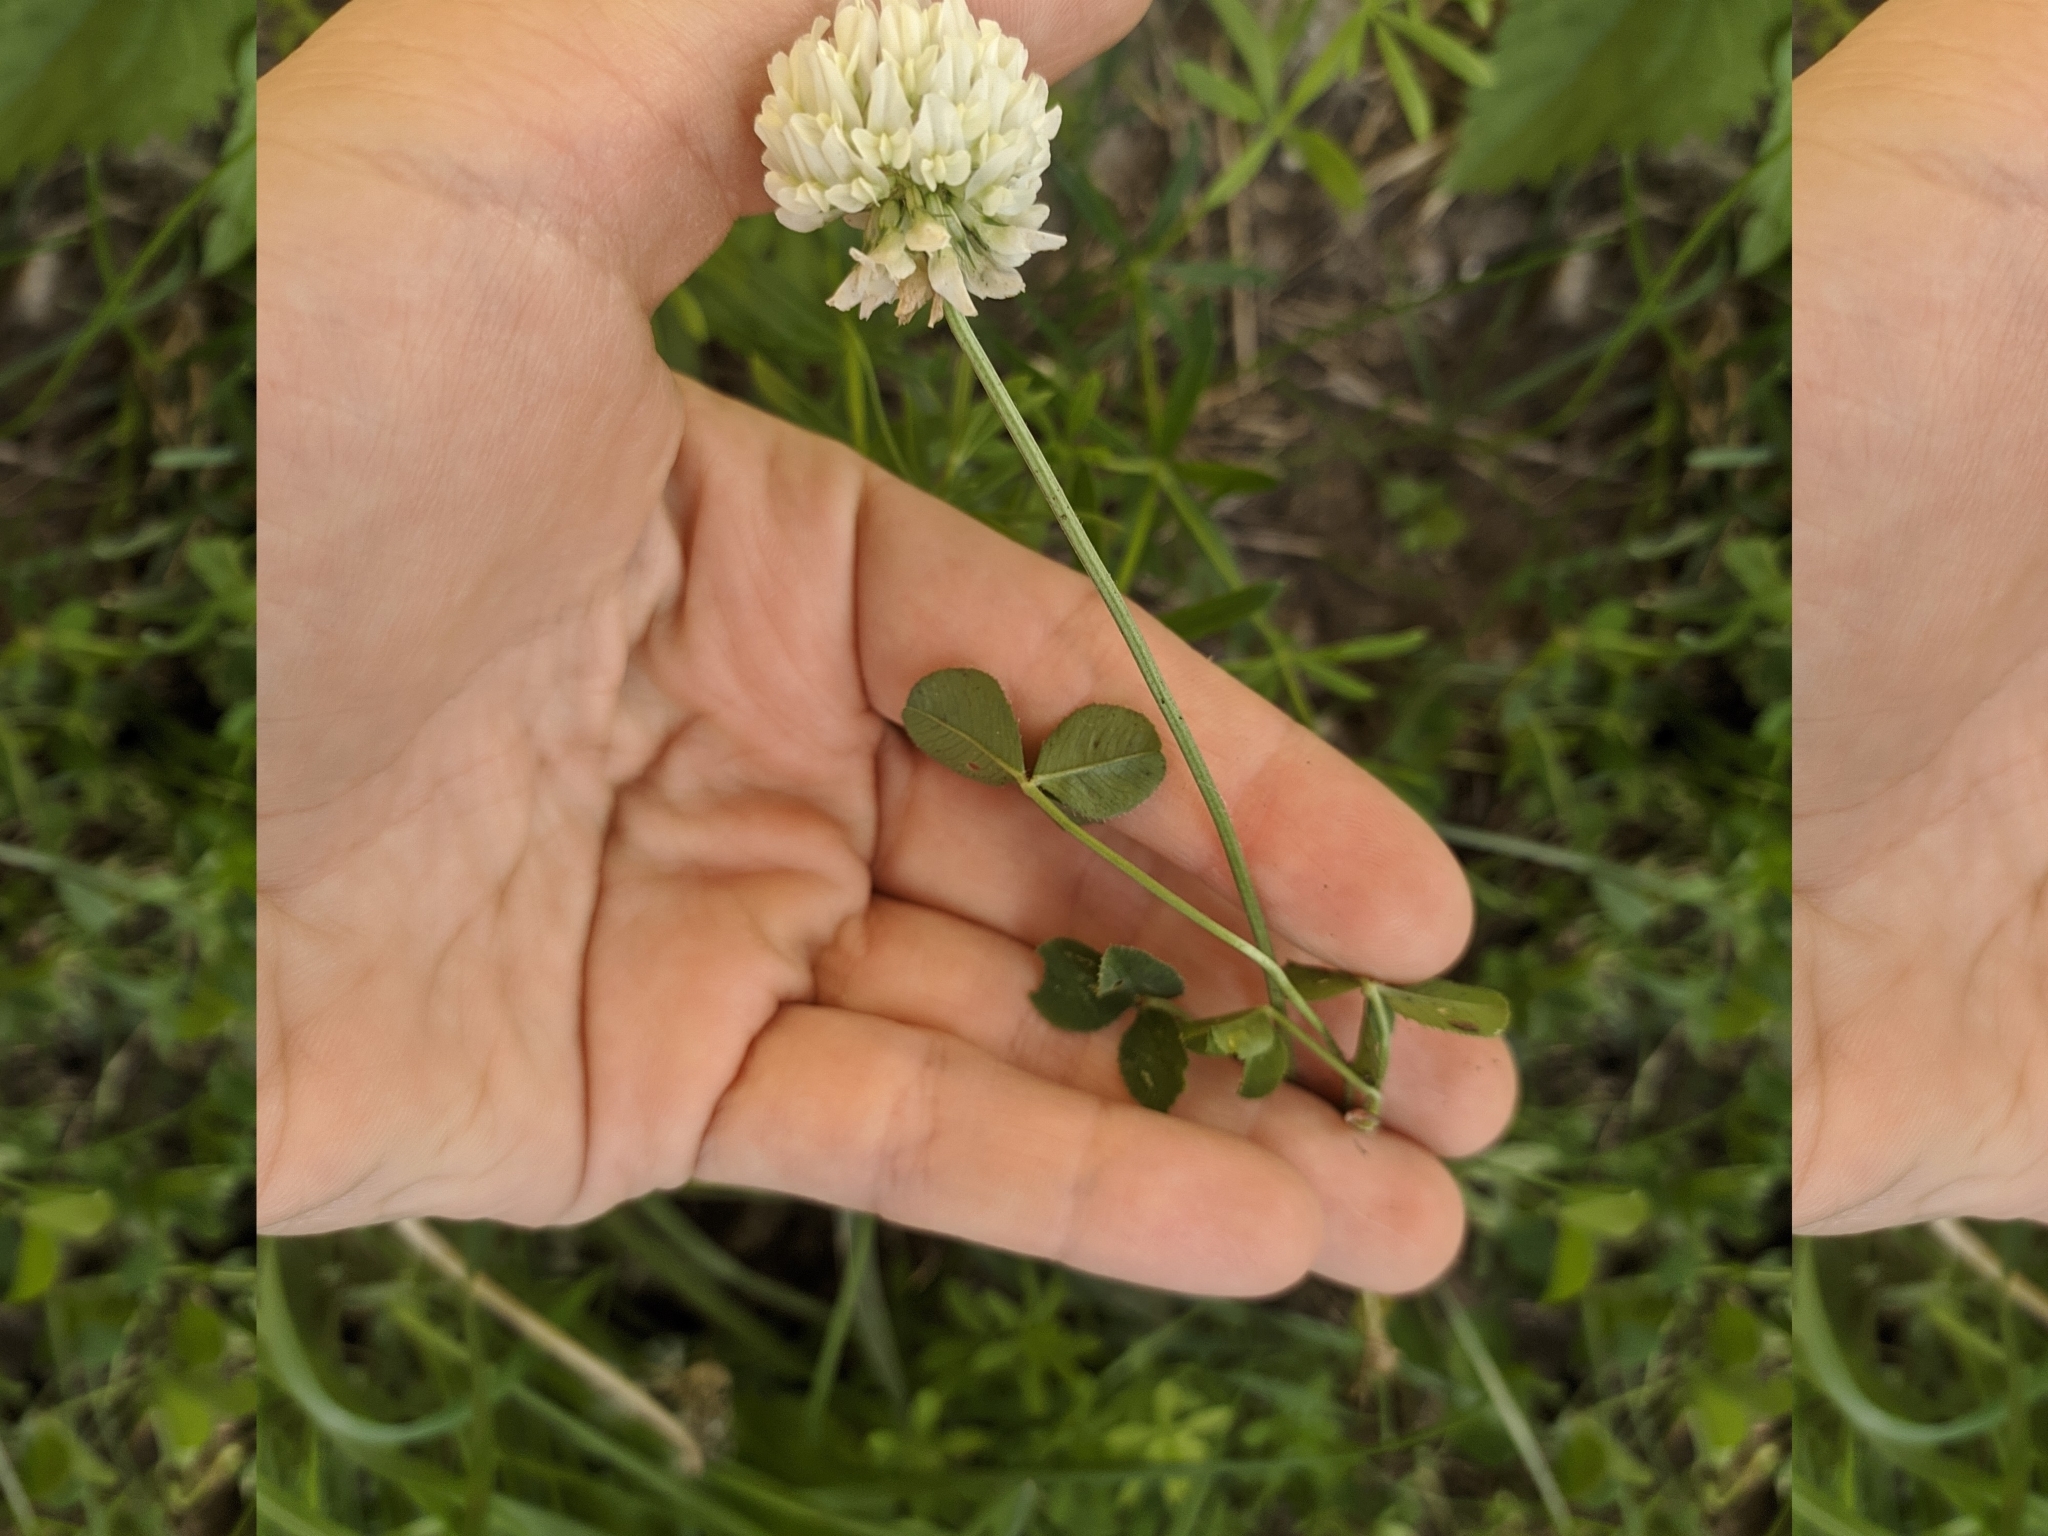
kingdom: Plantae
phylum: Tracheophyta
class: Magnoliopsida
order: Fabales
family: Fabaceae
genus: Trifolium
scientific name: Trifolium repens
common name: White clover
